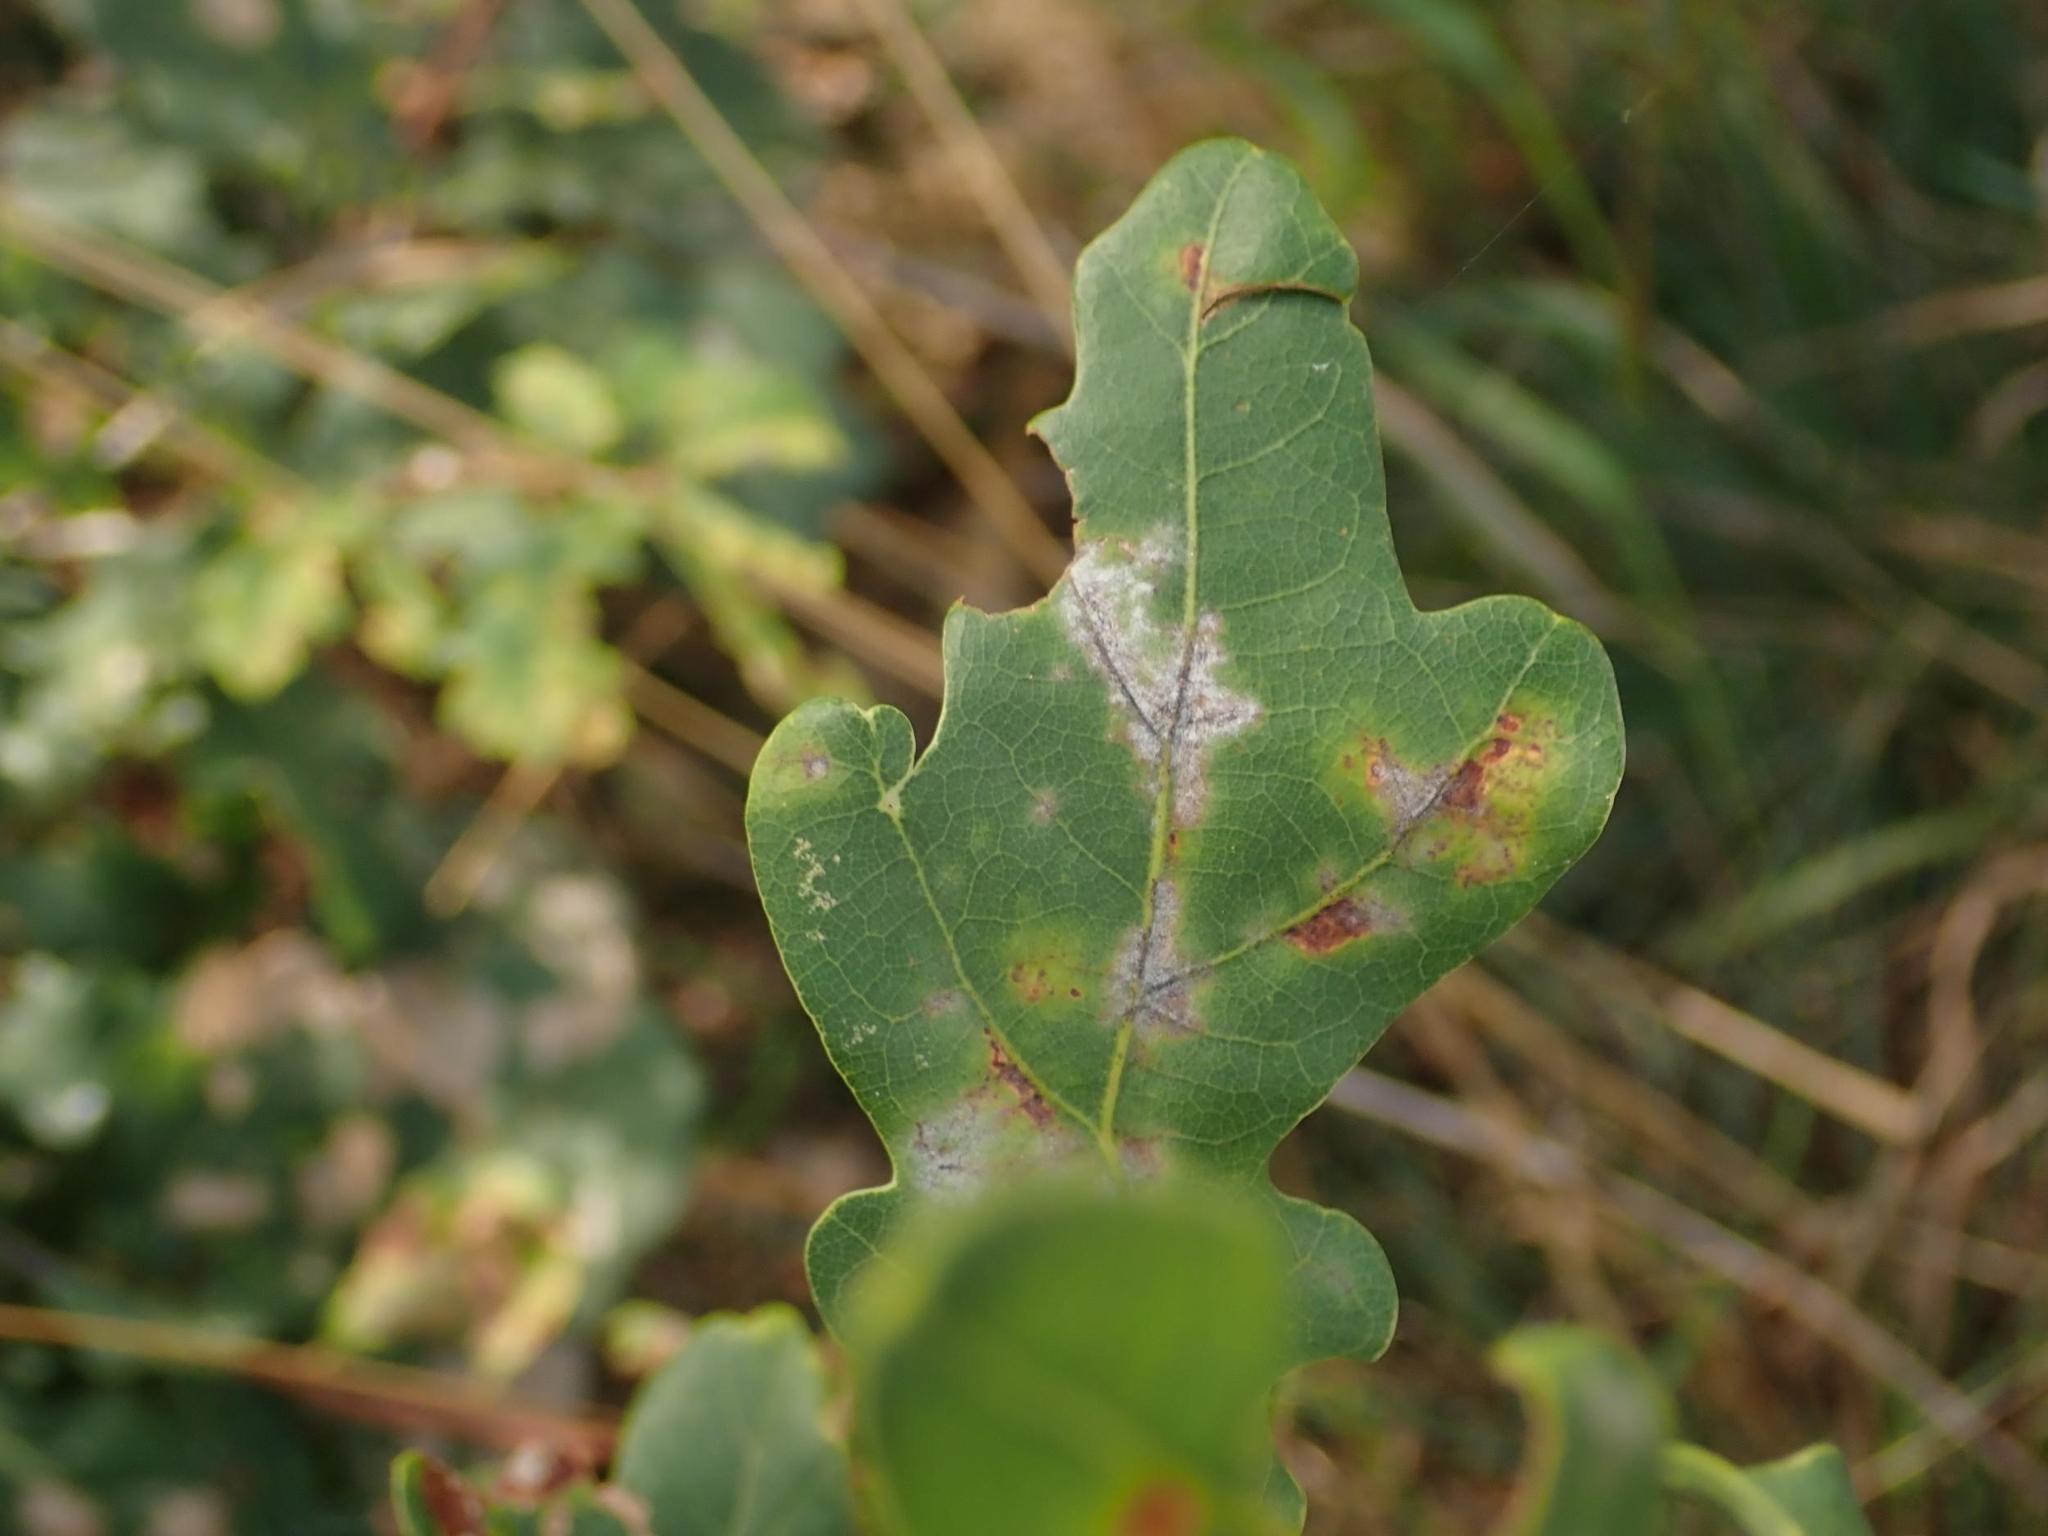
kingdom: Fungi
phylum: Ascomycota
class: Leotiomycetes
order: Helotiales
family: Erysiphaceae
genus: Erysiphe
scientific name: Erysiphe
